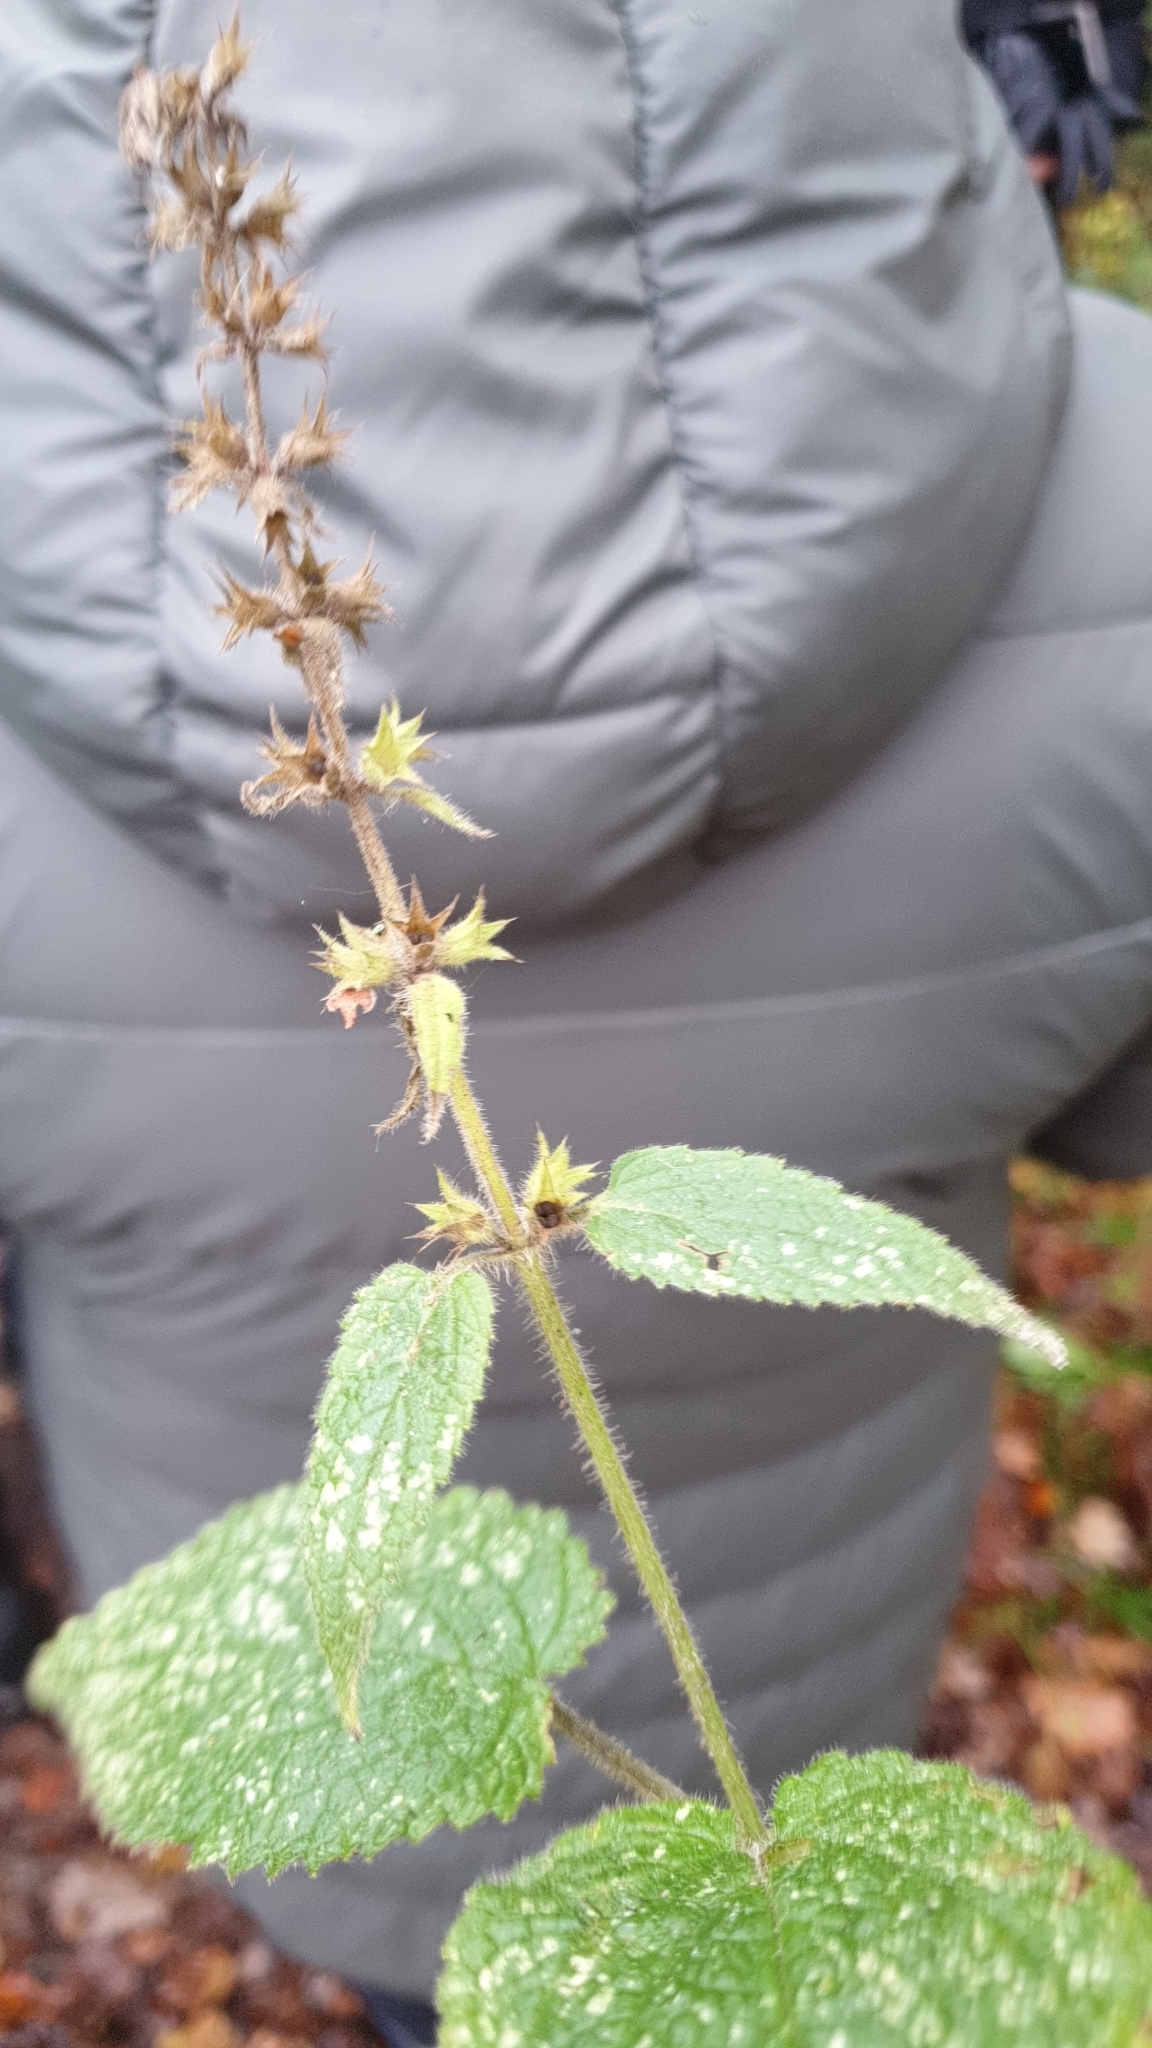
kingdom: Plantae
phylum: Tracheophyta
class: Magnoliopsida
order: Lamiales
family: Lamiaceae
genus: Stachys
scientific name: Stachys sylvatica
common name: Hedge woundwort
